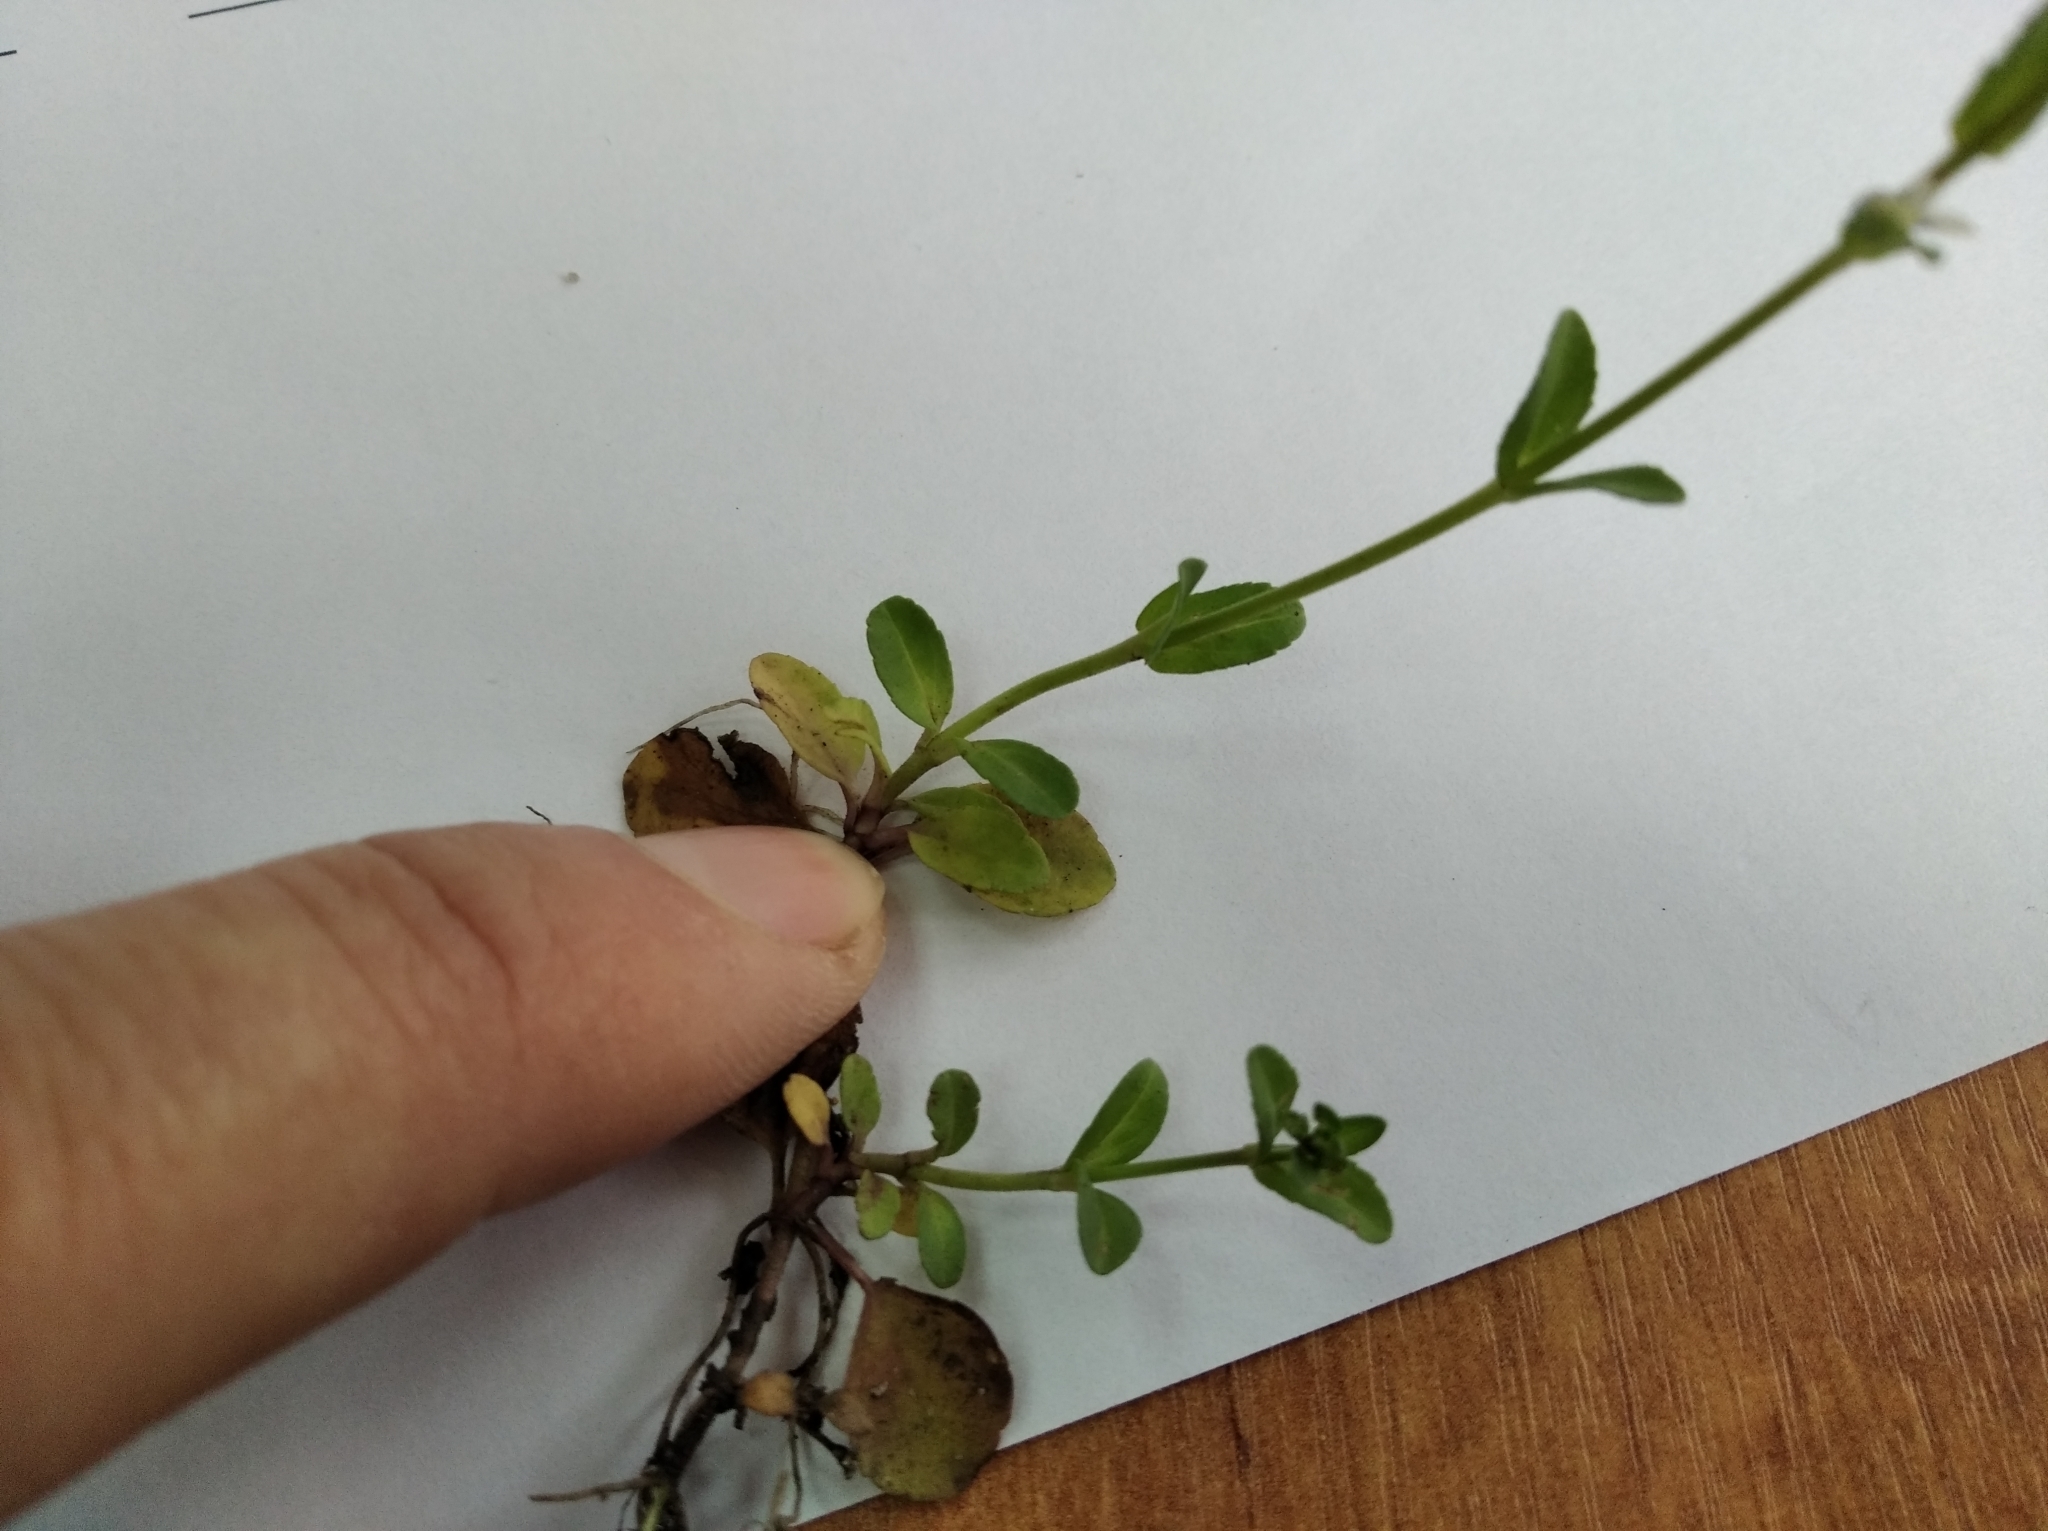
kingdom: Plantae
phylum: Tracheophyta
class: Magnoliopsida
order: Lamiales
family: Plantaginaceae
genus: Veronica
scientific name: Veronica serpyllifolia
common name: Thyme-leaved speedwell
